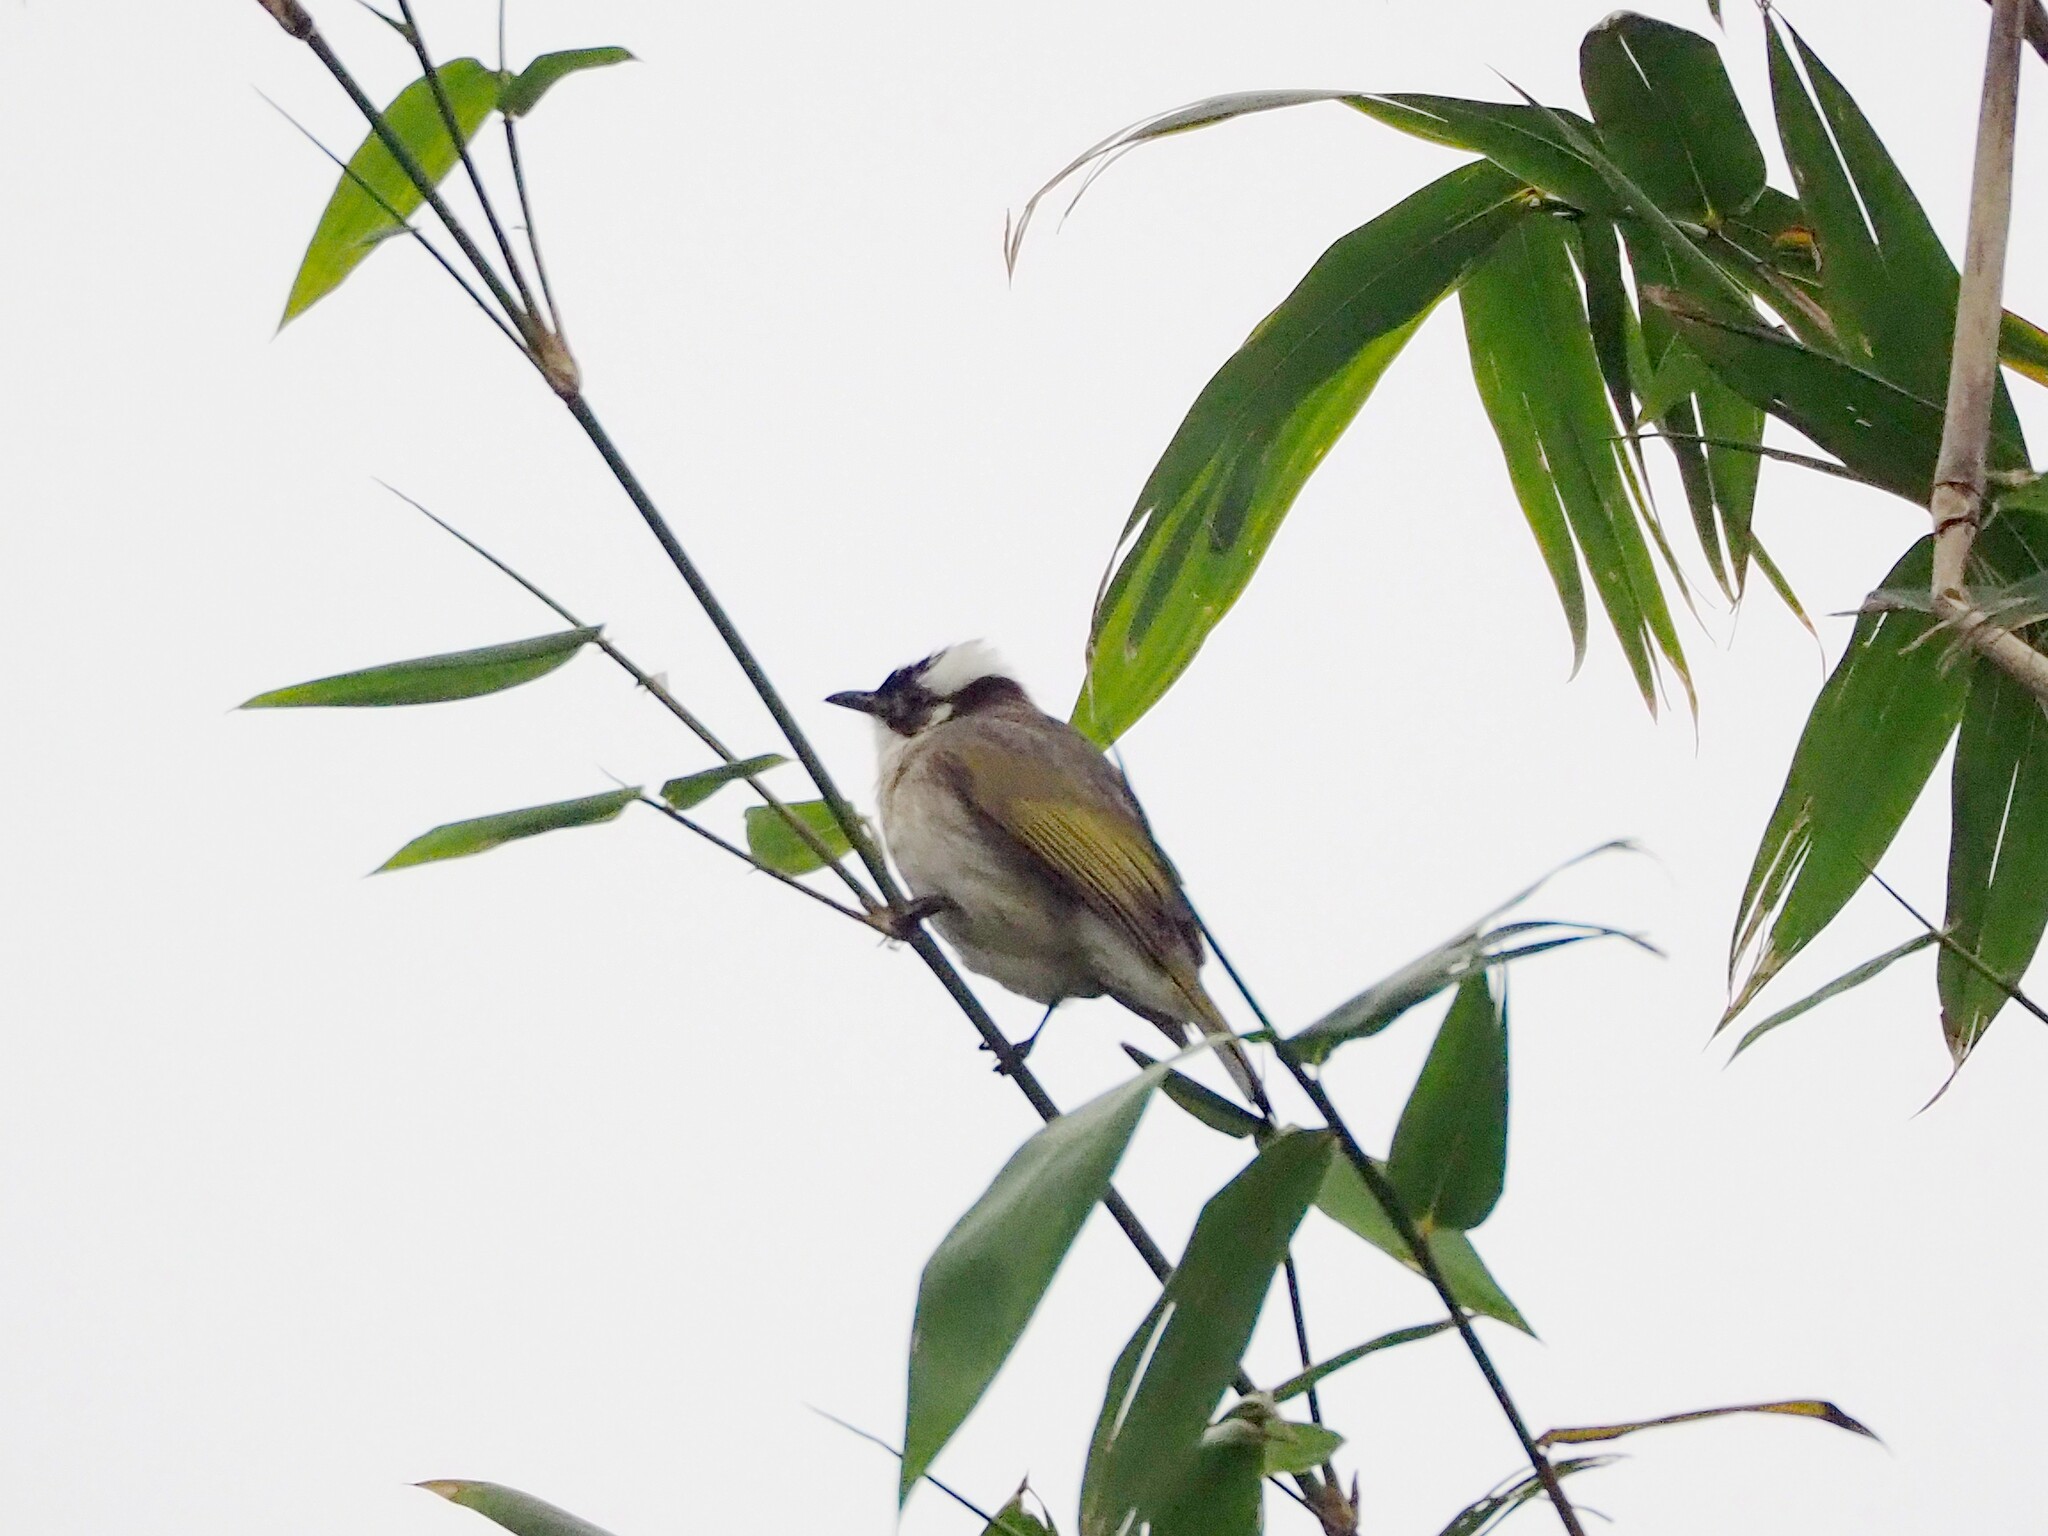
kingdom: Animalia
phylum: Chordata
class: Aves
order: Passeriformes
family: Pycnonotidae
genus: Pycnonotus
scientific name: Pycnonotus sinensis
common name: Light-vented bulbul
